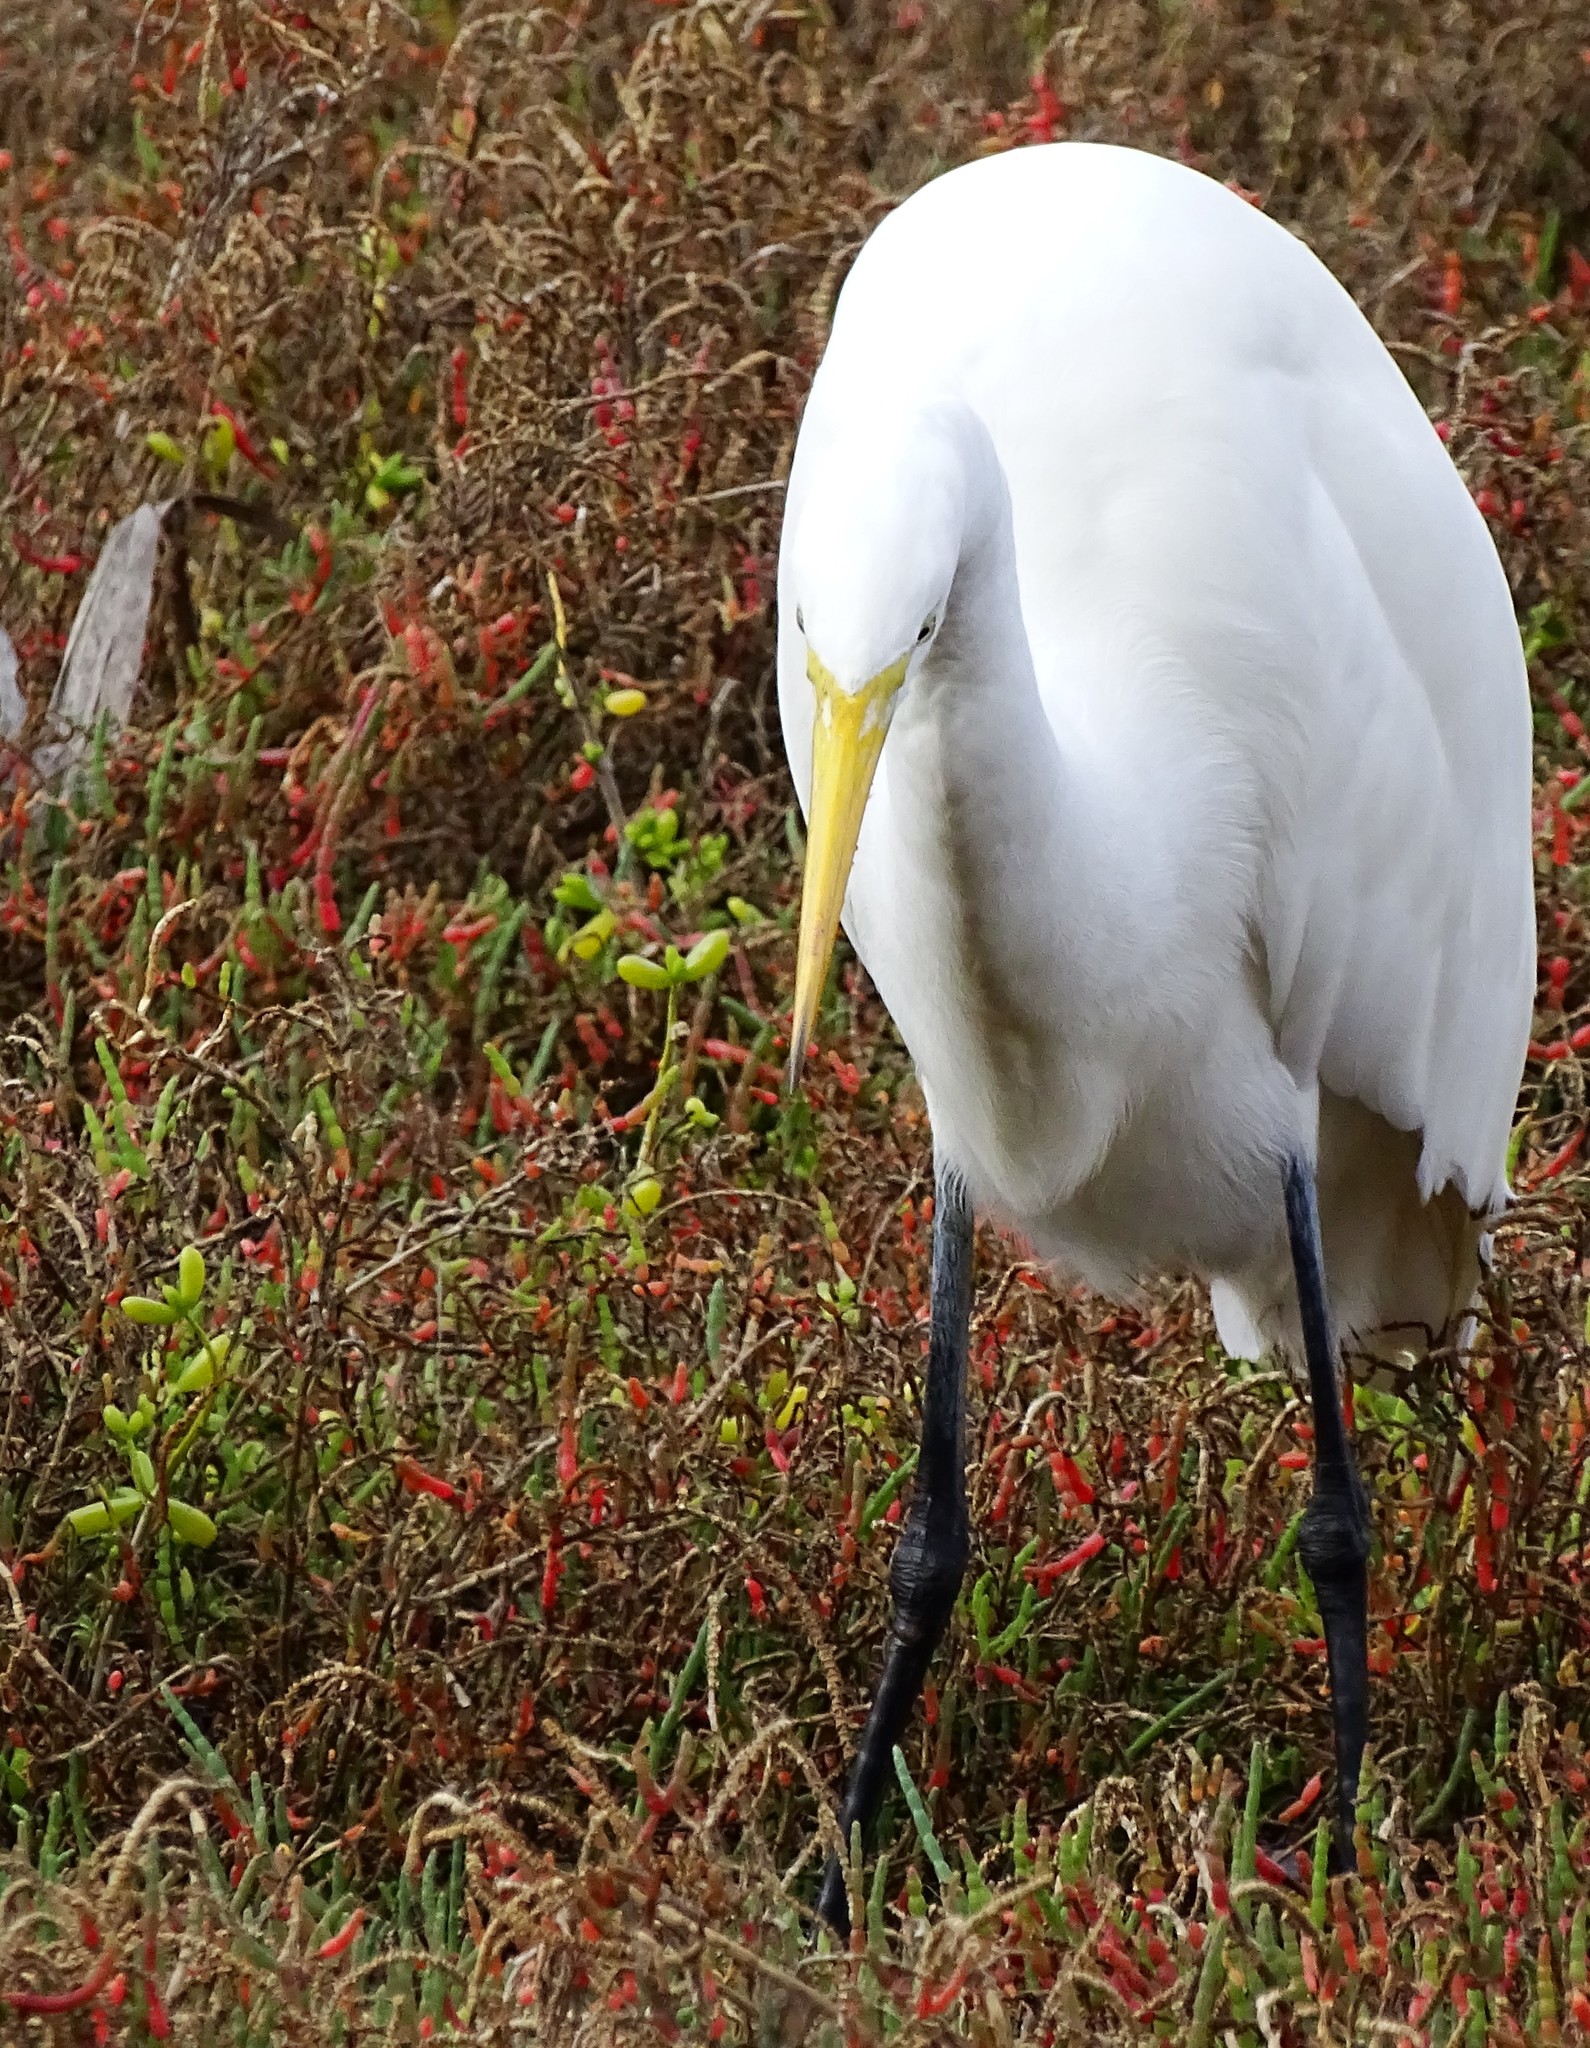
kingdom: Animalia
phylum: Chordata
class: Aves
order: Pelecaniformes
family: Ardeidae
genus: Ardea
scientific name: Ardea alba
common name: Great egret
